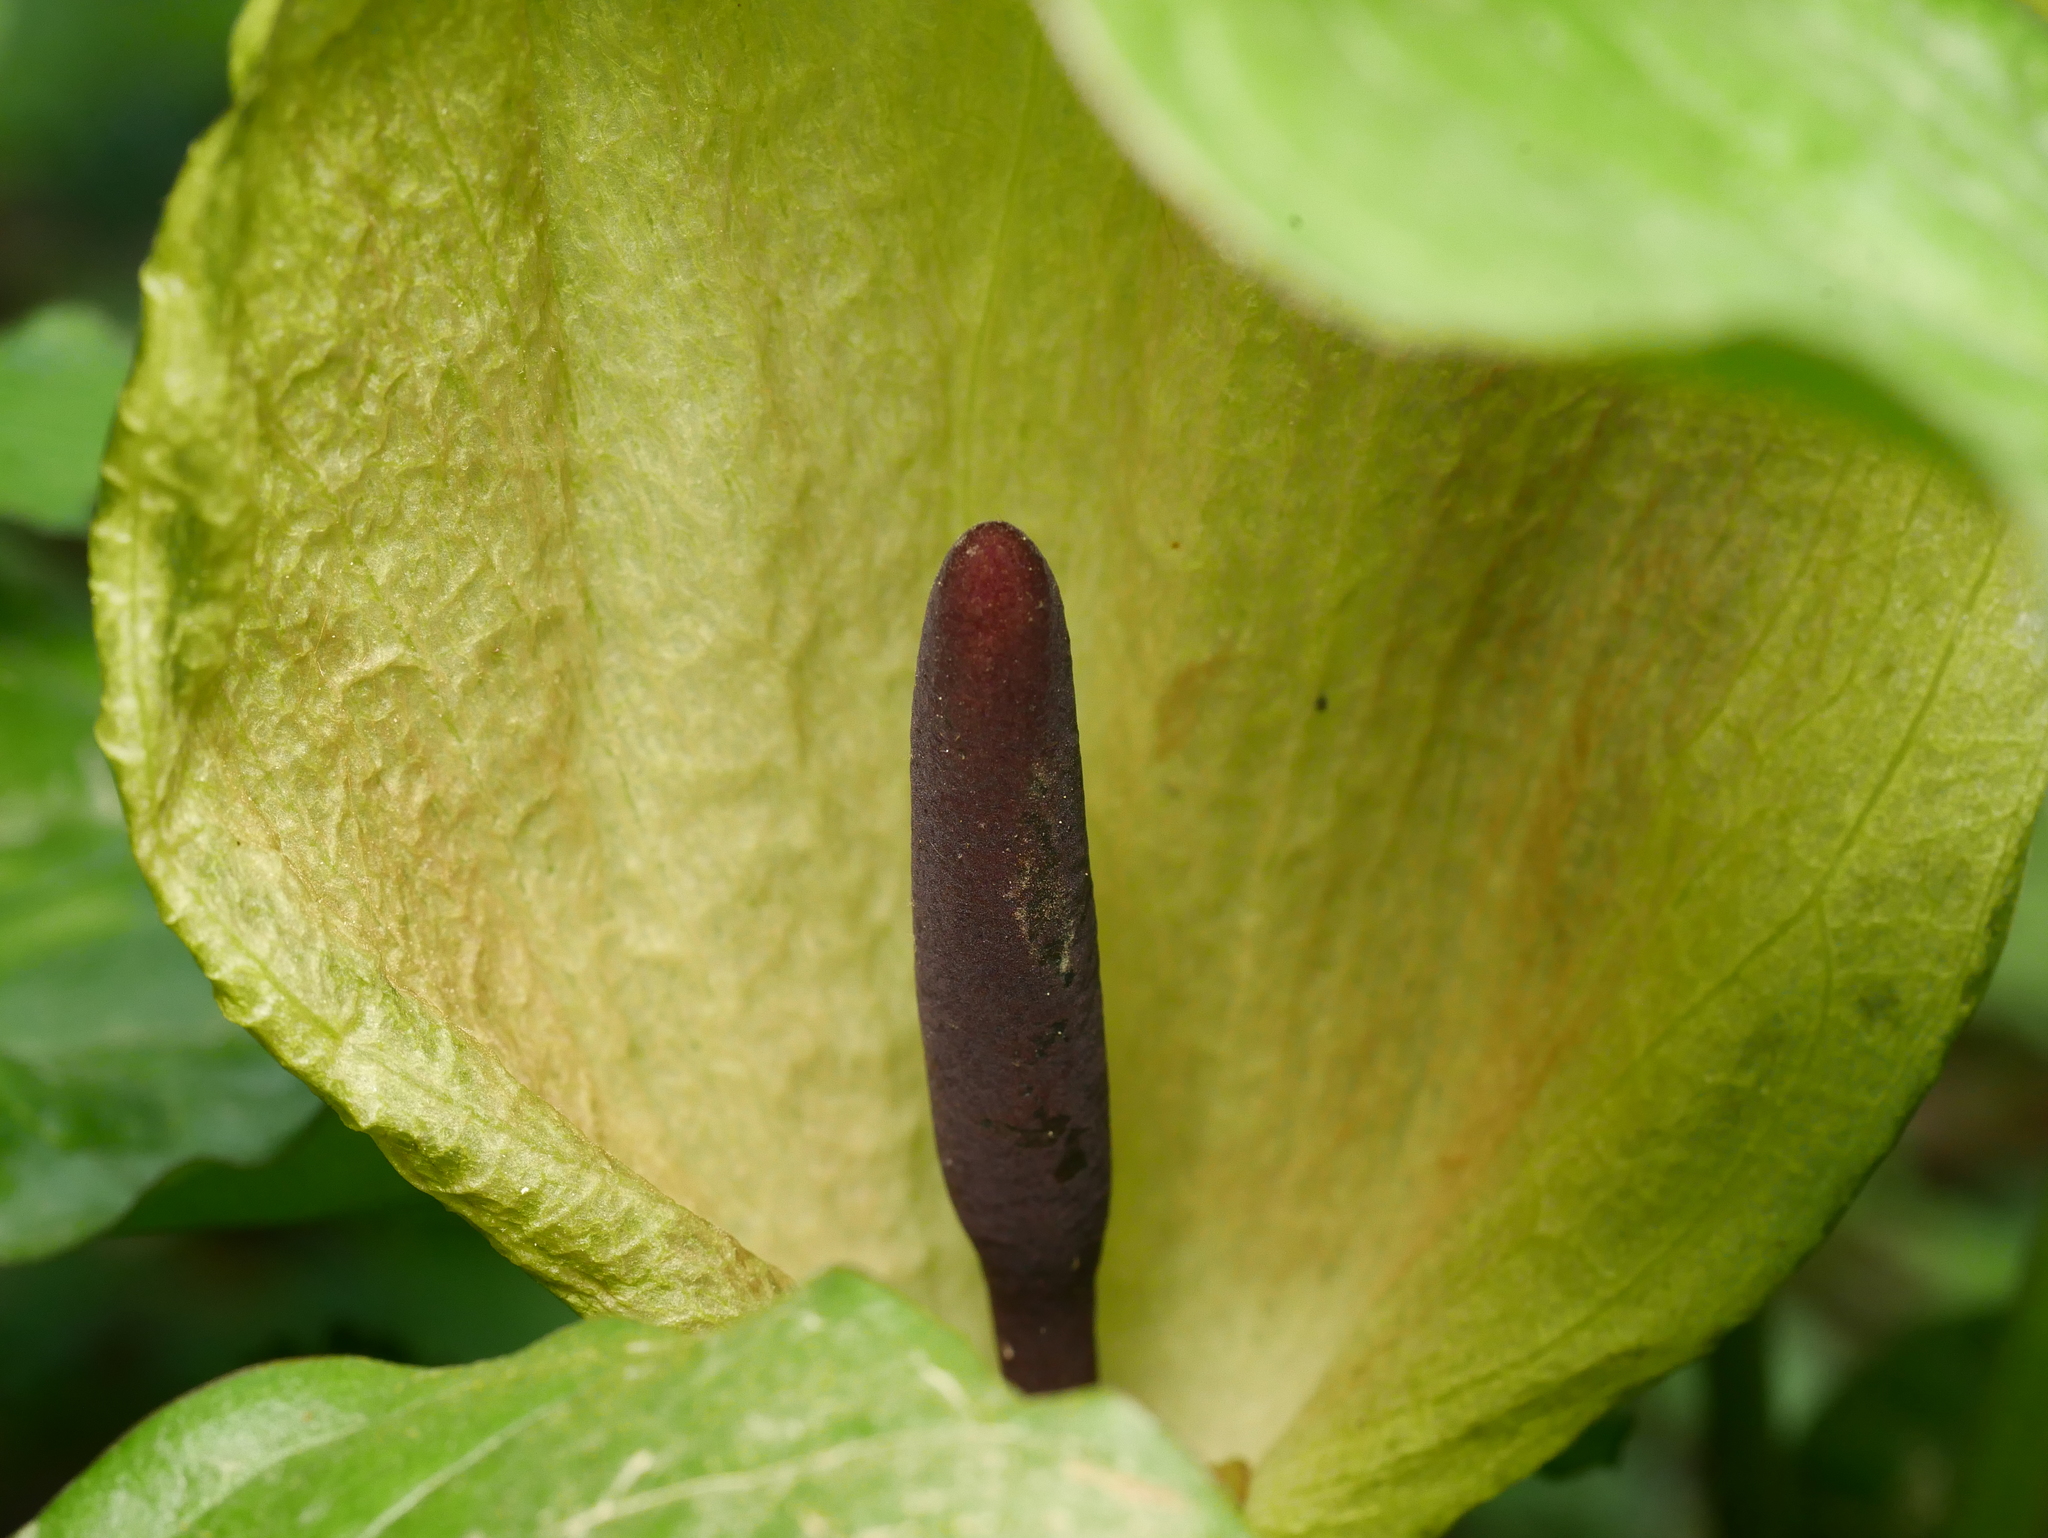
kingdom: Plantae
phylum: Tracheophyta
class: Liliopsida
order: Alismatales
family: Araceae
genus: Arum
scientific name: Arum maculatum
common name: Lords-and-ladies
